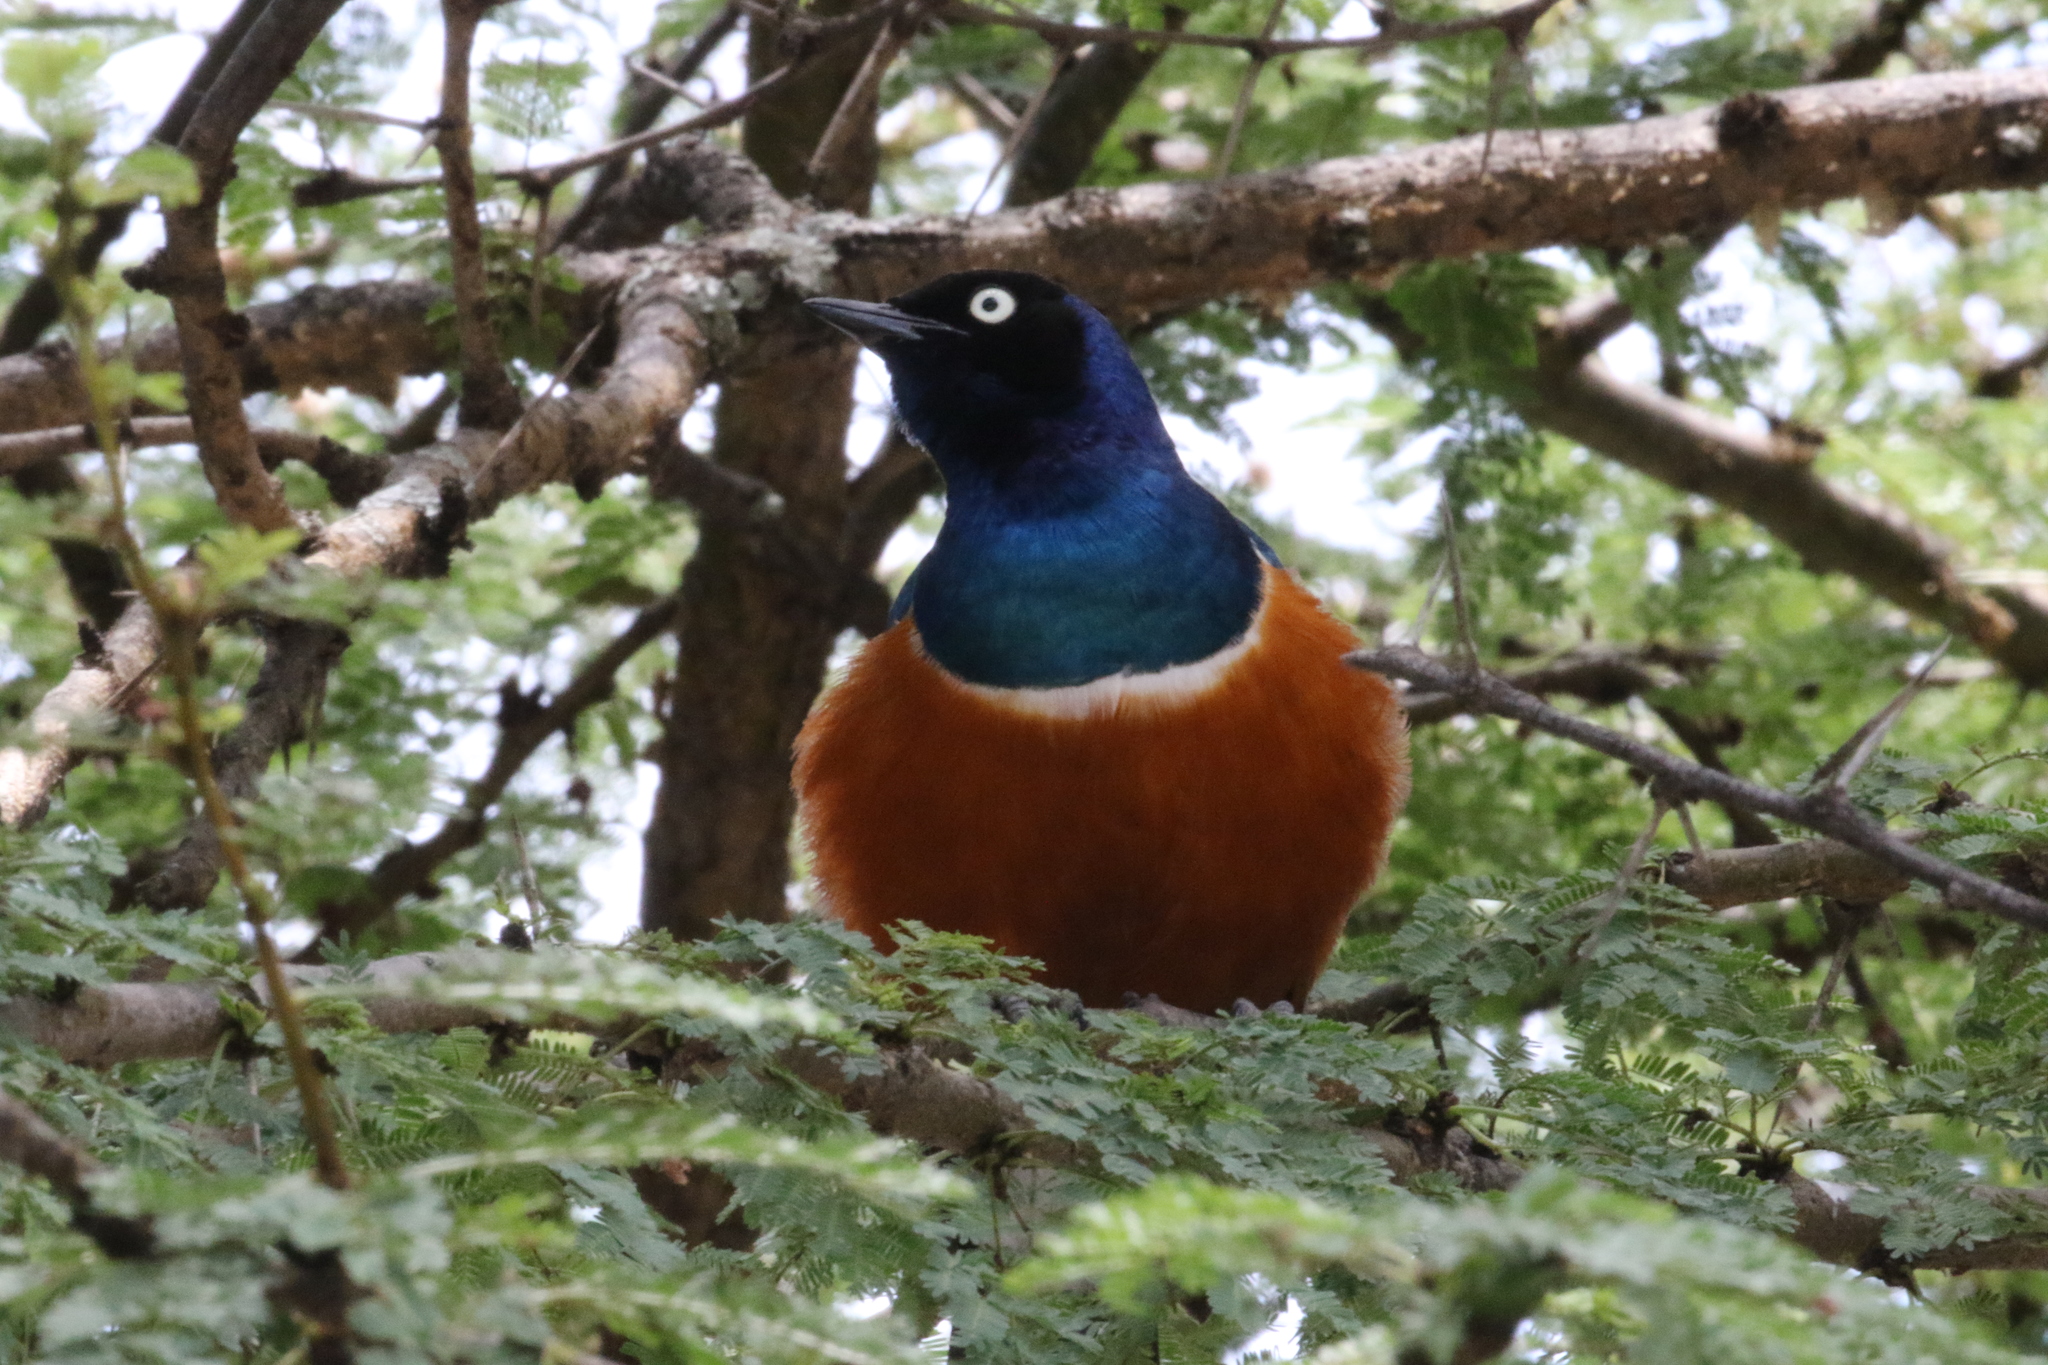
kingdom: Animalia
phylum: Chordata
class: Aves
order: Passeriformes
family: Sturnidae
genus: Lamprotornis
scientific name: Lamprotornis superbus
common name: Superb starling
